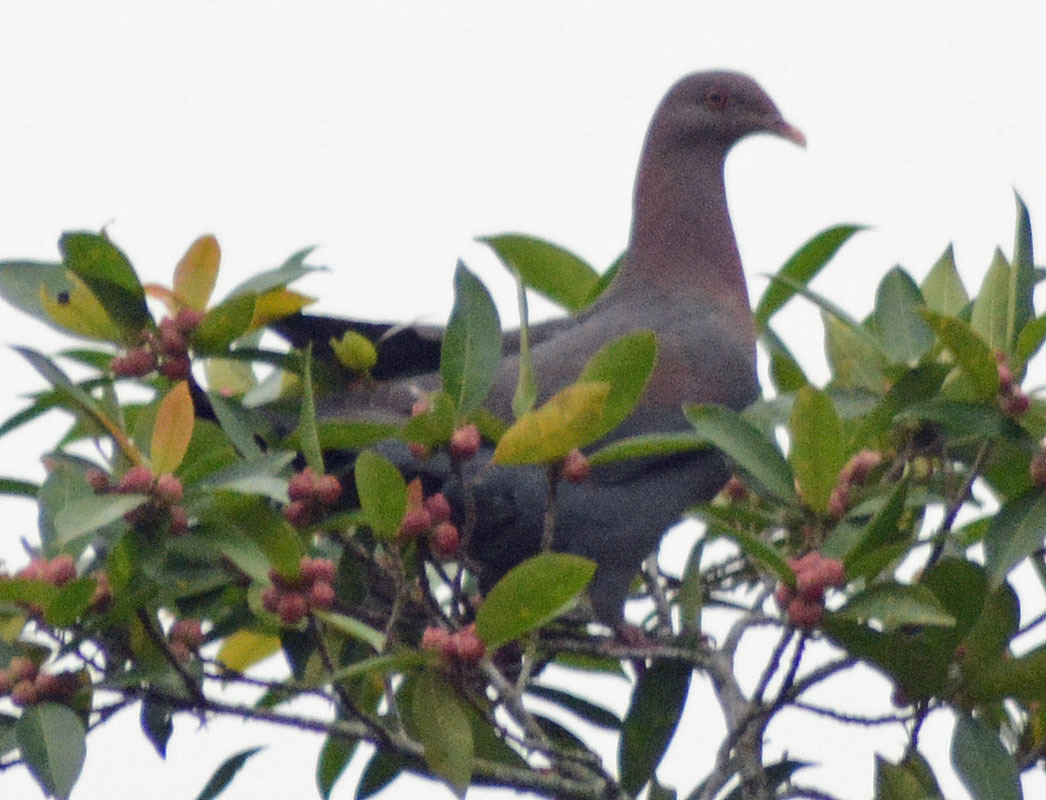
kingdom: Animalia
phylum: Chordata
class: Aves
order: Columbiformes
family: Columbidae
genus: Patagioenas
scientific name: Patagioenas flavirostris
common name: Red-billed pigeon
